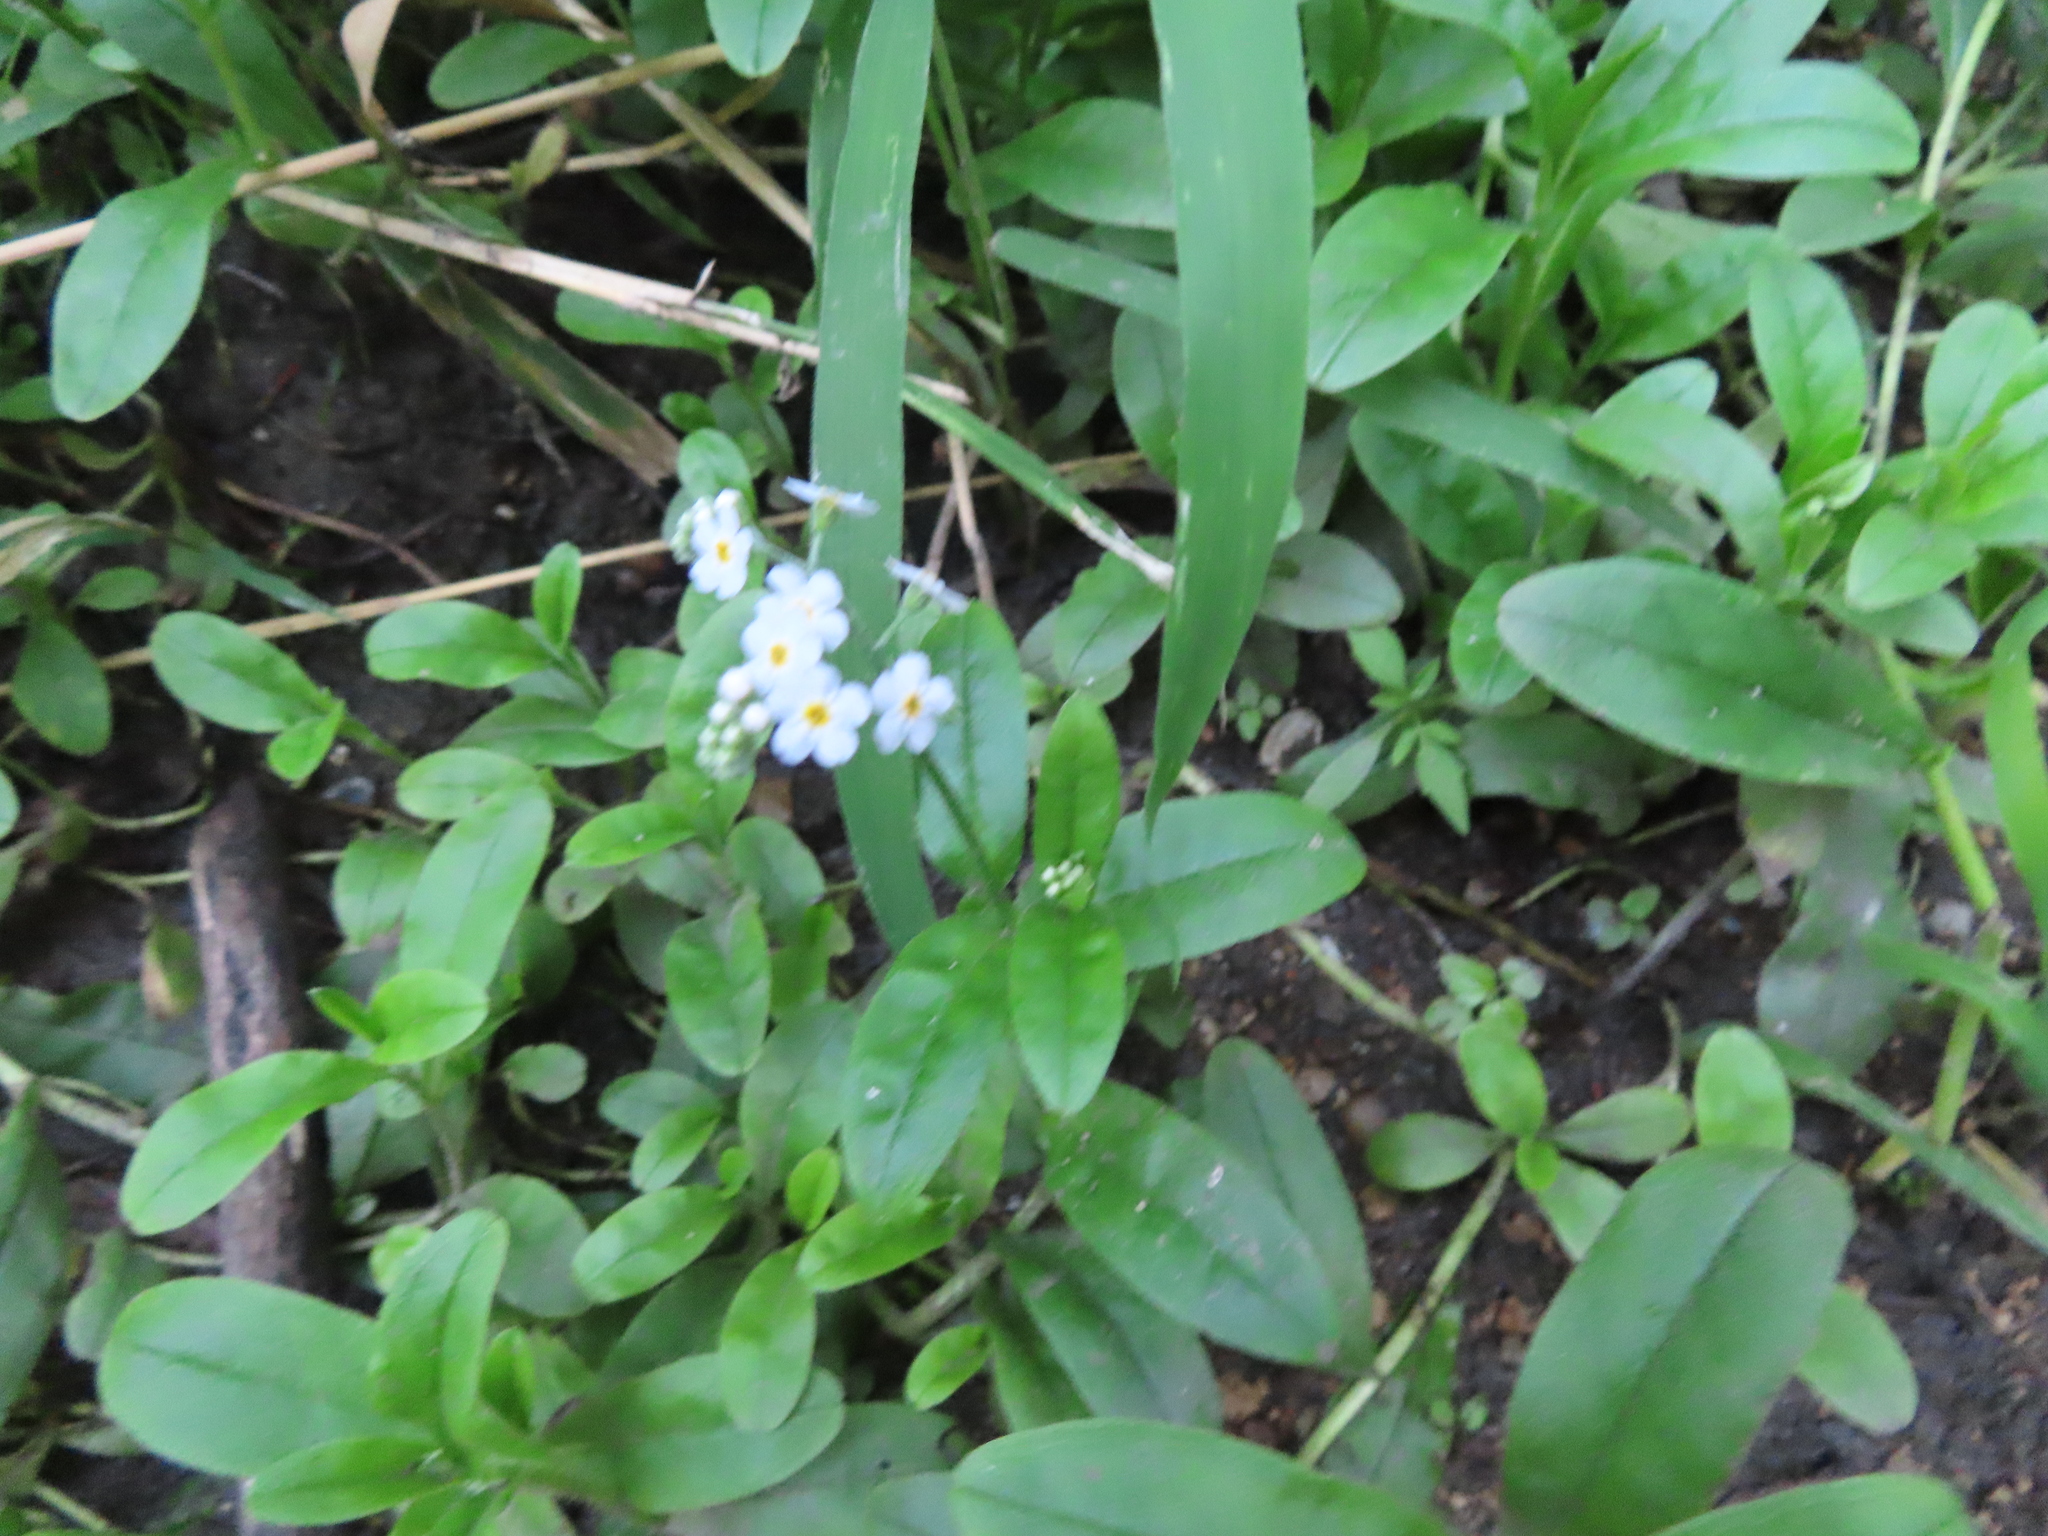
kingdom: Plantae
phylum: Tracheophyta
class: Magnoliopsida
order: Boraginales
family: Boraginaceae
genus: Myosotis
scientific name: Myosotis scorpioides
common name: Water forget-me-not
